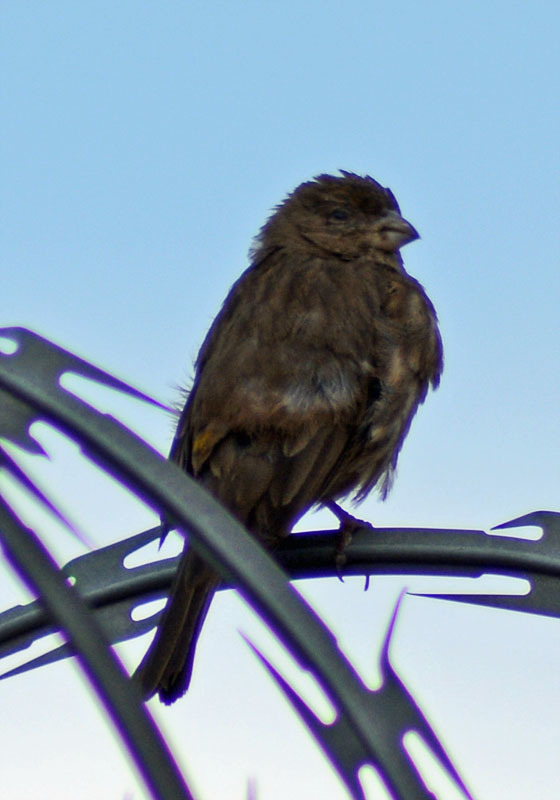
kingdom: Animalia
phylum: Chordata
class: Aves
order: Passeriformes
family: Fringillidae
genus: Haemorhous
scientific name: Haemorhous mexicanus
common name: House finch
